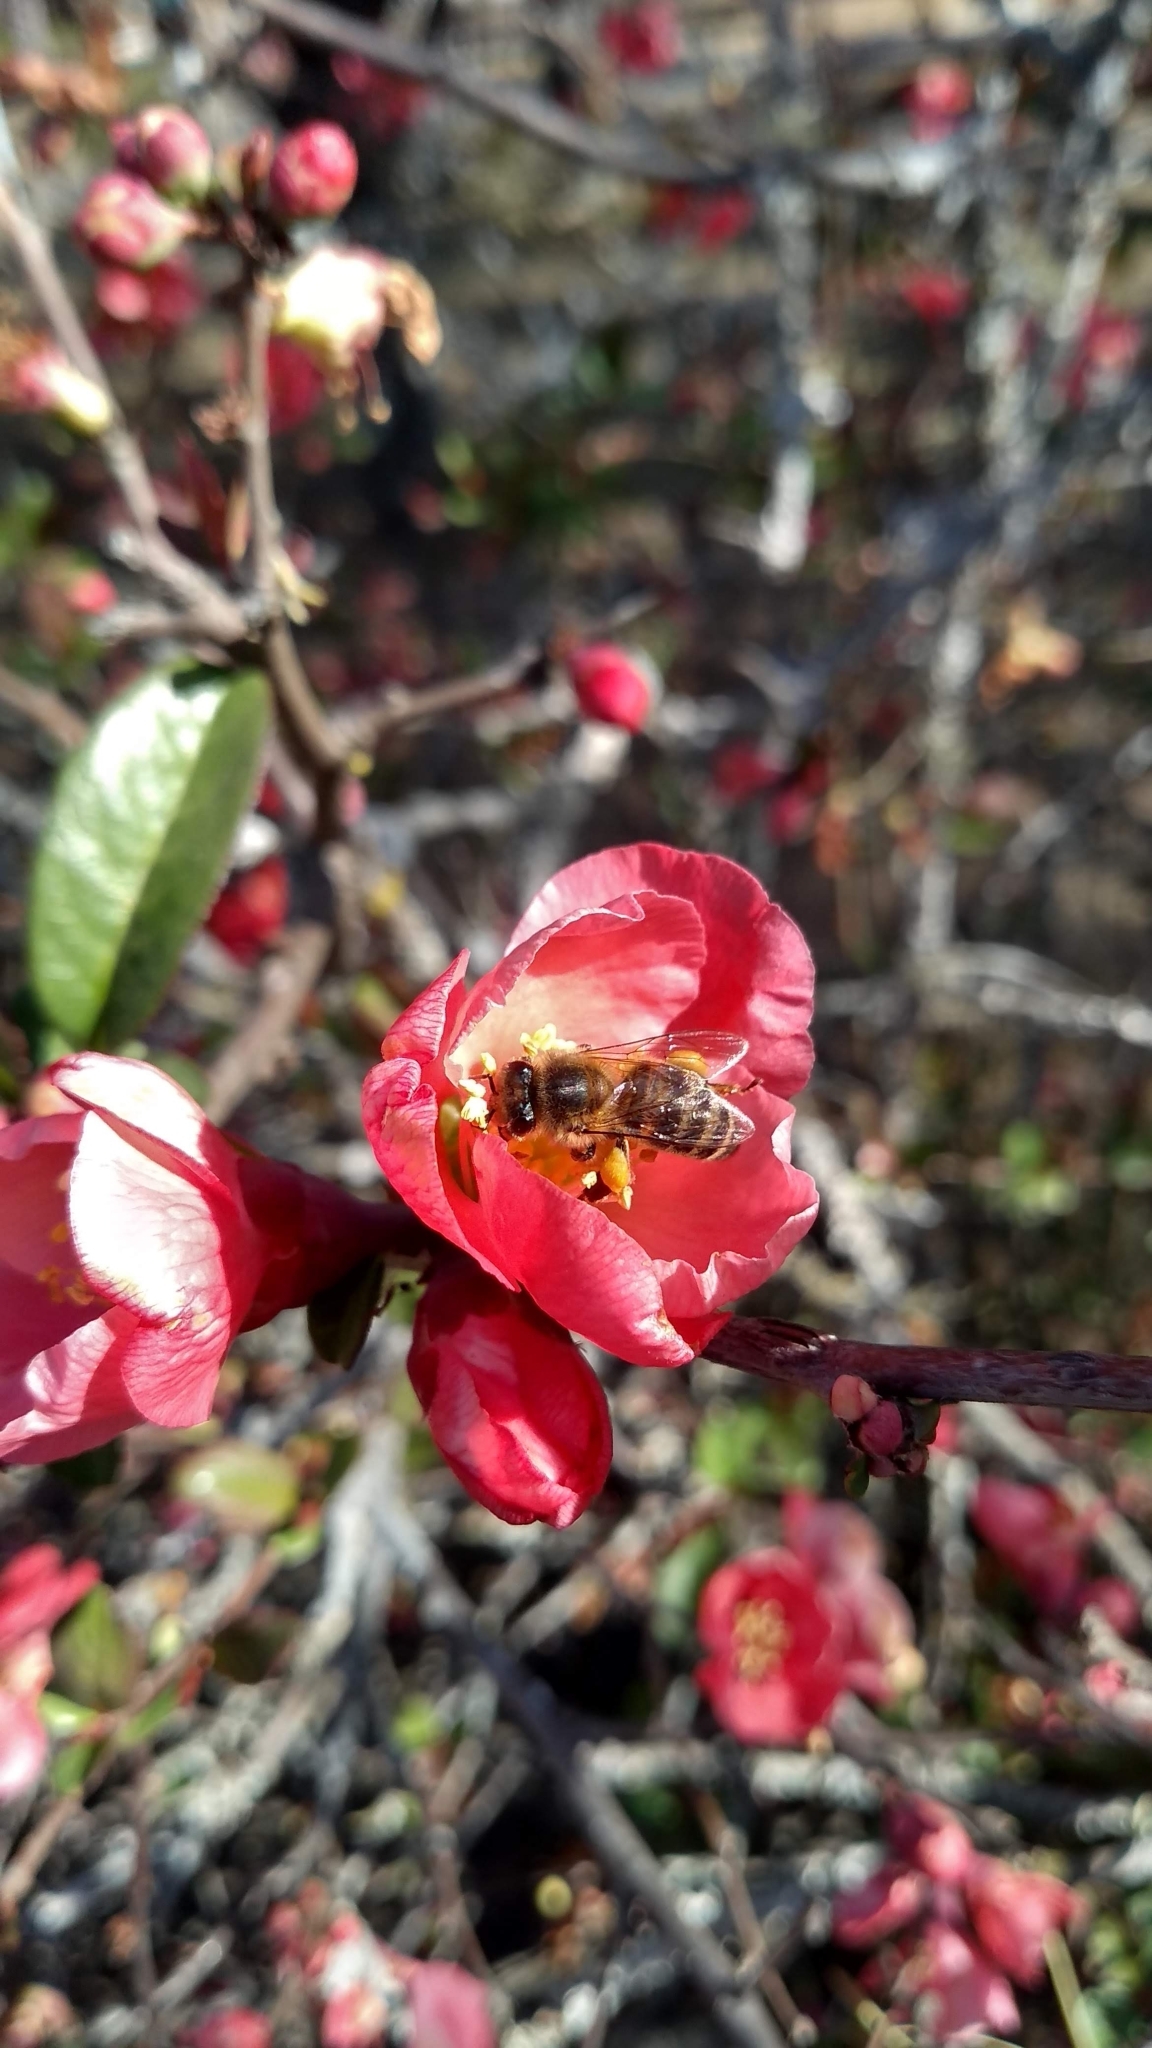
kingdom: Animalia
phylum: Arthropoda
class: Insecta
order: Hymenoptera
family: Apidae
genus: Apis
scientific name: Apis mellifera
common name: Honey bee
